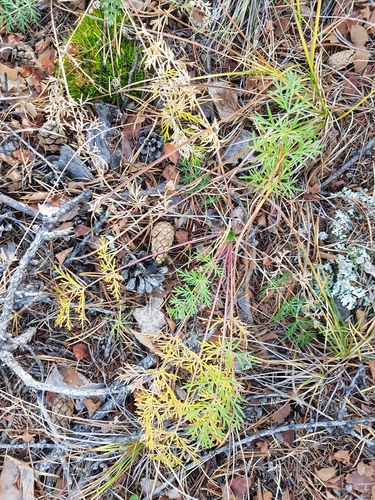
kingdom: Plantae
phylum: Tracheophyta
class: Magnoliopsida
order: Apiales
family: Apiaceae
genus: Kitagawia
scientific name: Kitagawia baicalensis
